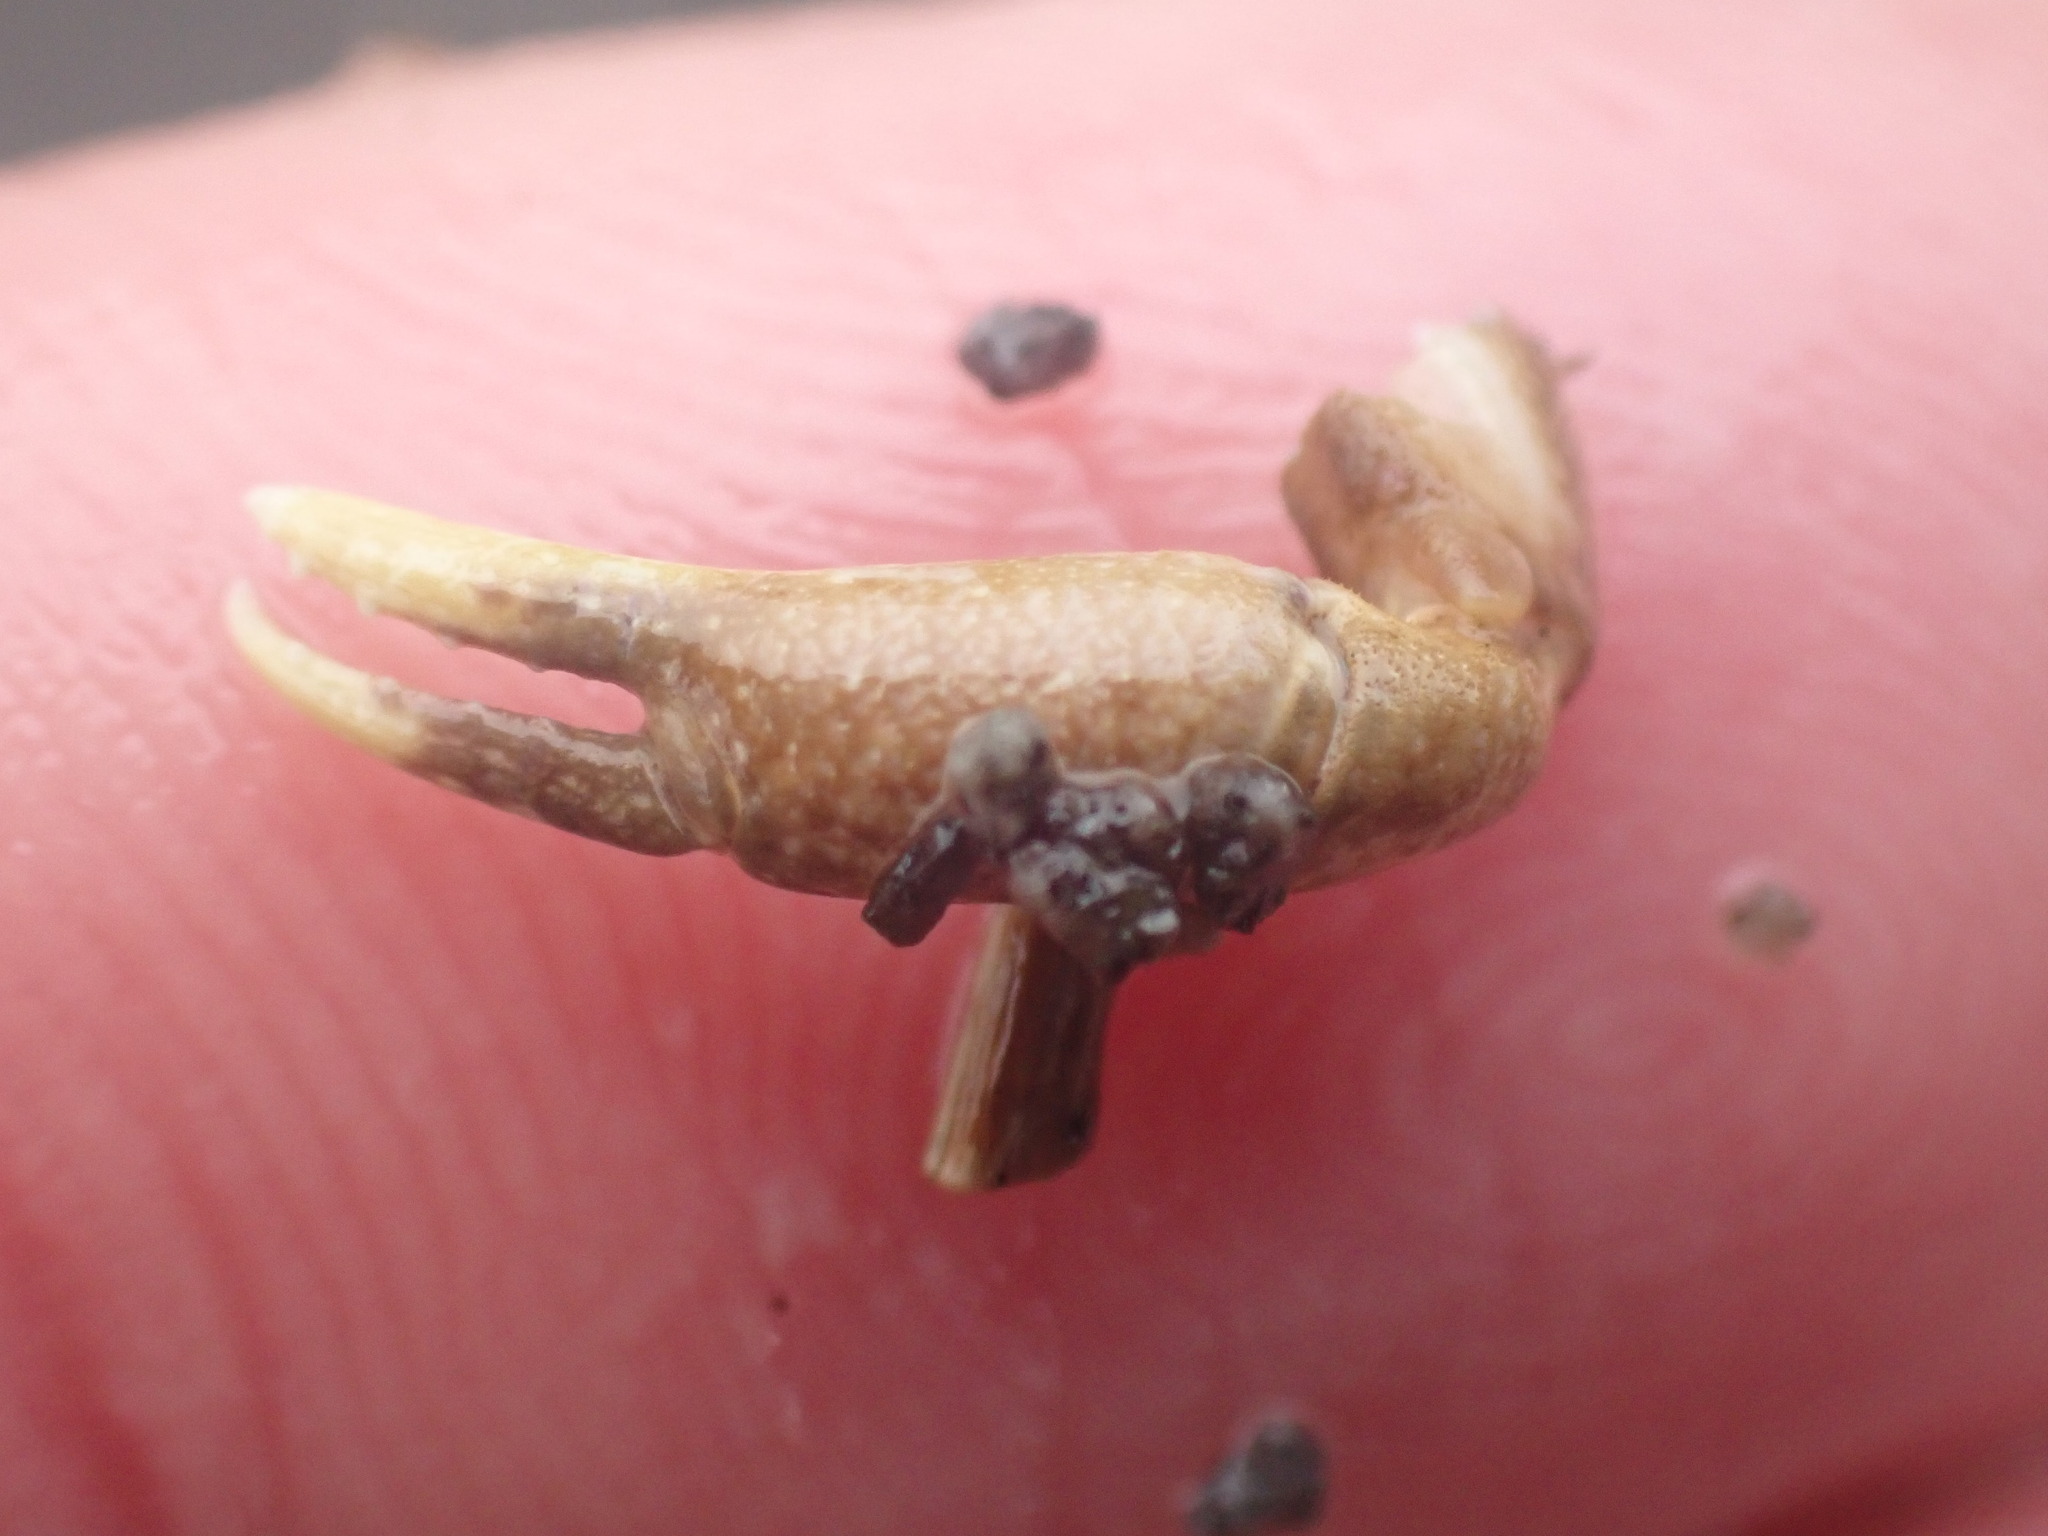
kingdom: Animalia
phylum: Arthropoda
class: Malacostraca
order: Decapoda
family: Heteroziidae
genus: Heterozius
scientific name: Heterozius rotundifrons
